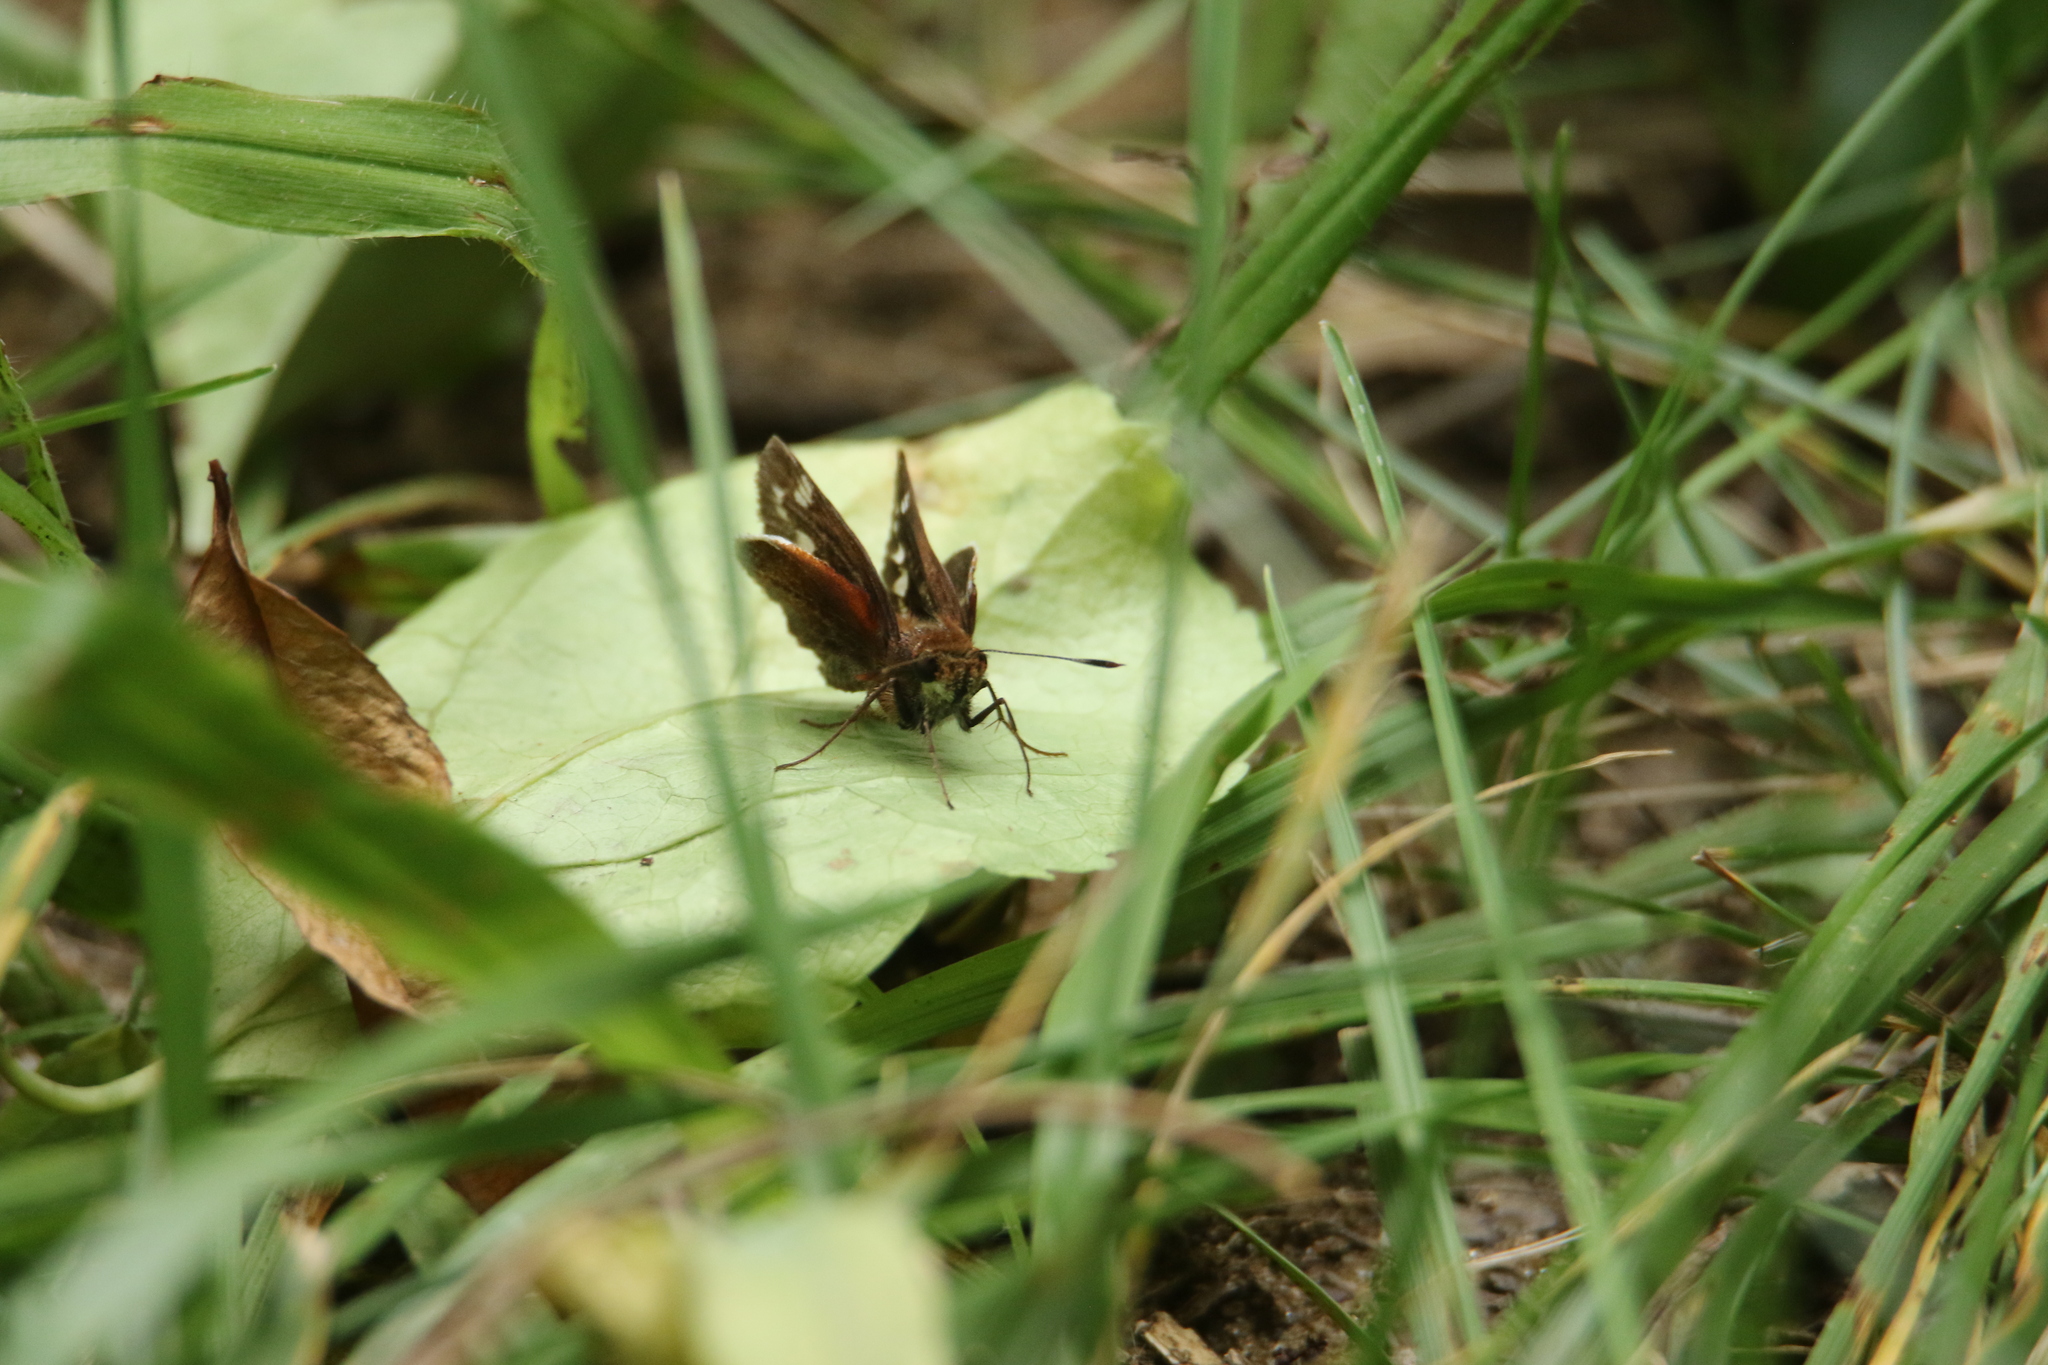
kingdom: Animalia
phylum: Arthropoda
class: Insecta
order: Lepidoptera
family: Hesperiidae
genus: Lon
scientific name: Lon zabulon
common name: Zabulon skipper
